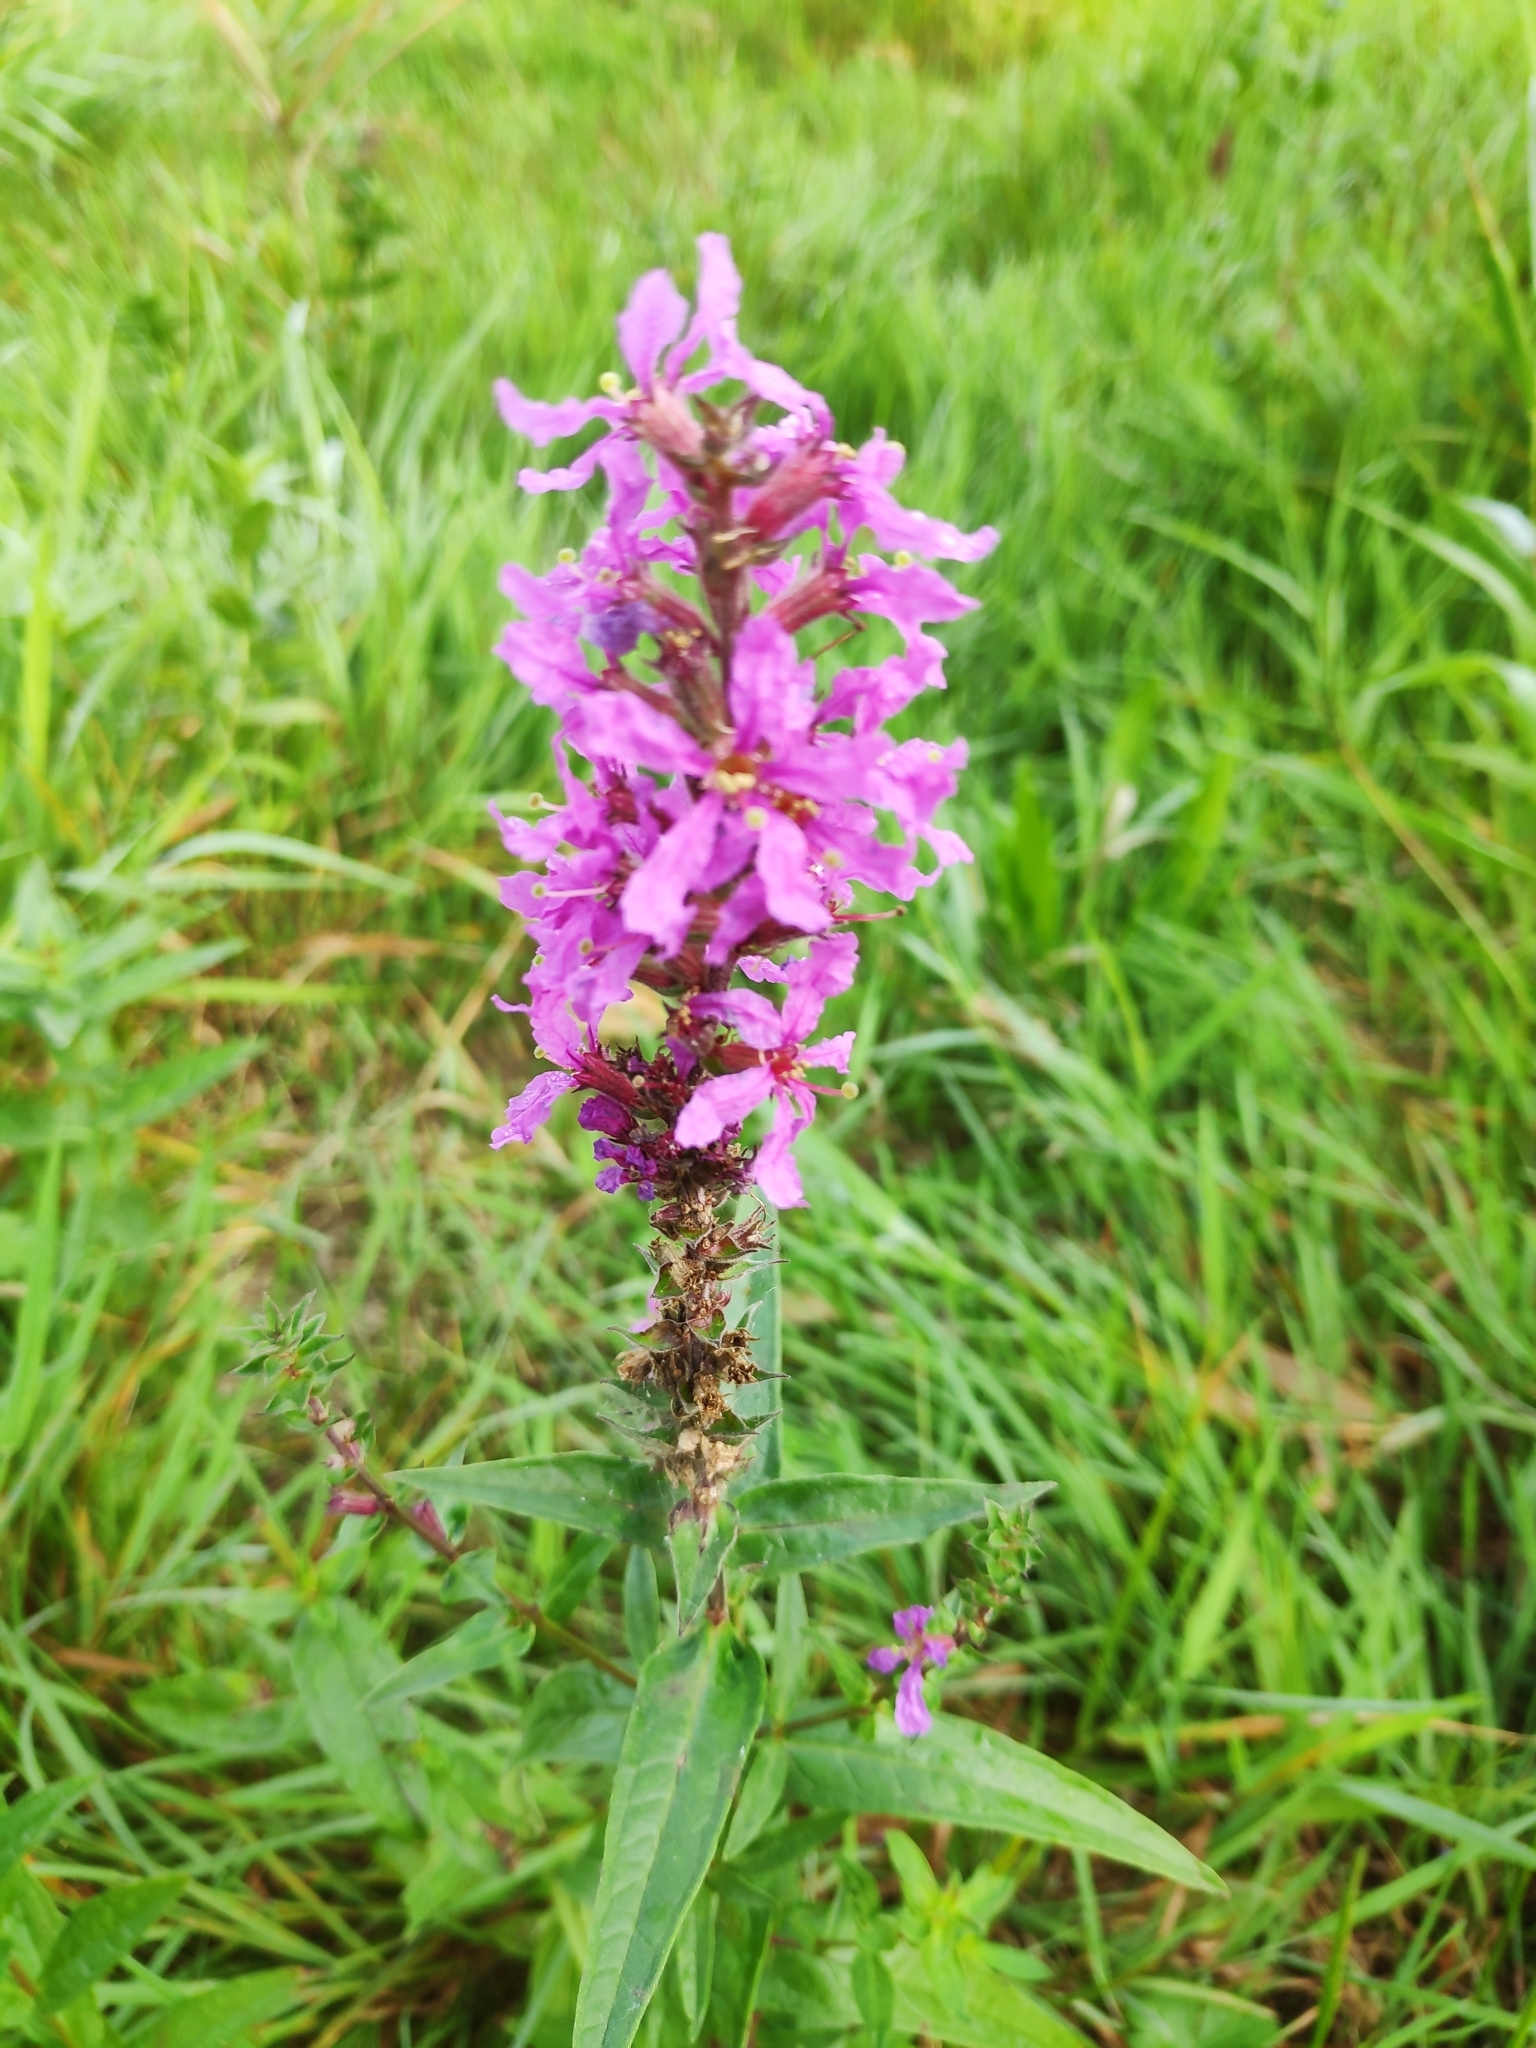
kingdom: Plantae
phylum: Tracheophyta
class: Magnoliopsida
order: Myrtales
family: Lythraceae
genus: Lythrum
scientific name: Lythrum salicaria
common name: Purple loosestrife
